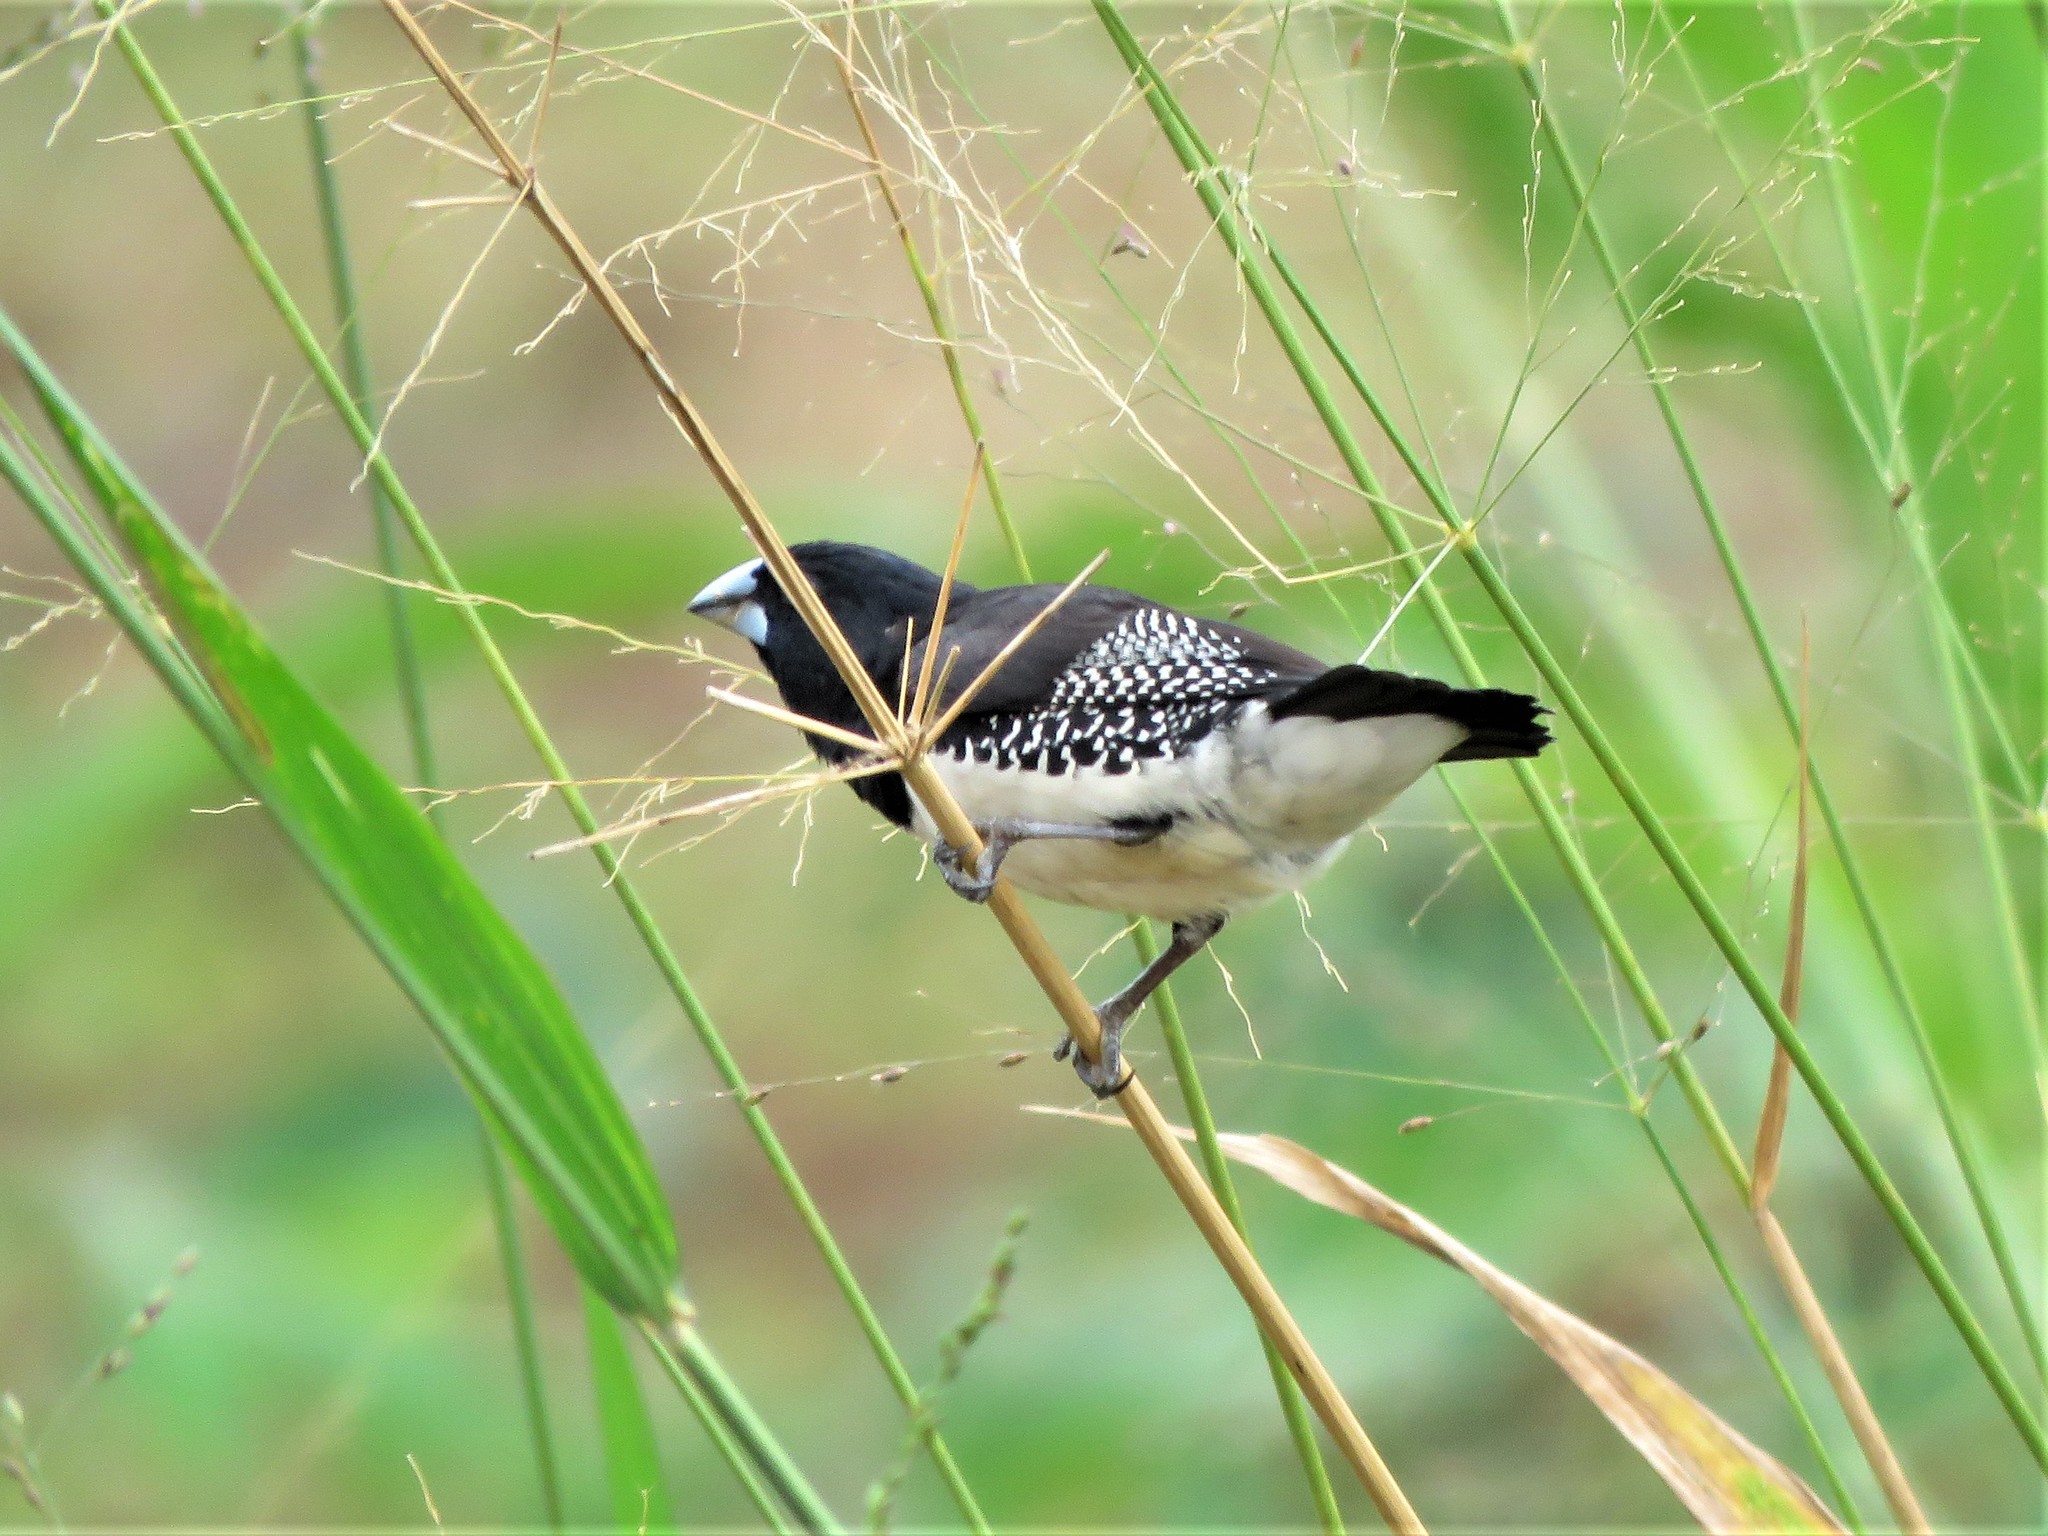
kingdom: Animalia
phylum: Chordata
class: Aves
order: Passeriformes
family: Estrildidae
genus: Lonchura
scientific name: Lonchura bicolor
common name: Black-and-white mannikin
